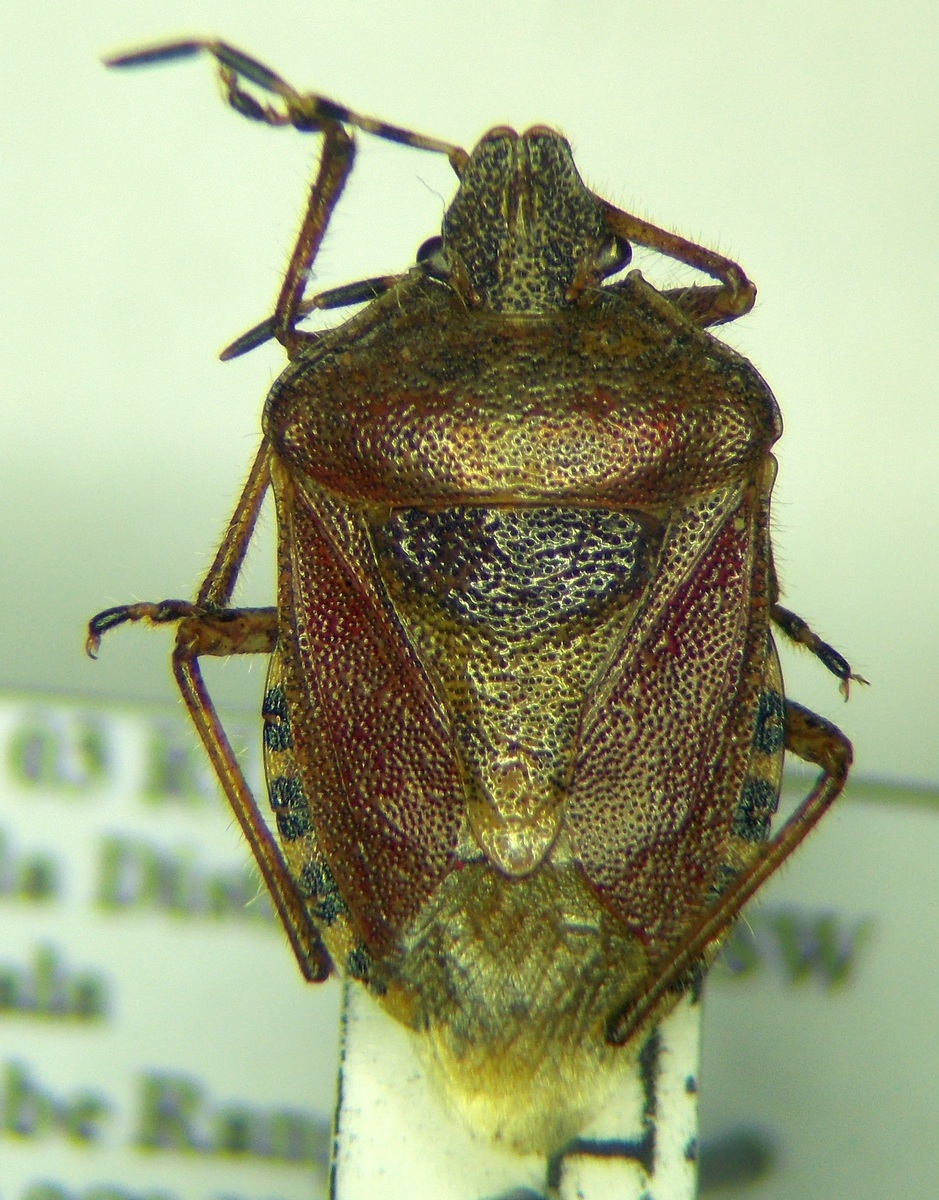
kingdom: Animalia
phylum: Arthropoda
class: Insecta
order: Hemiptera
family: Pentatomidae
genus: Dolycoris
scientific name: Dolycoris baccarum
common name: Sloe bug
